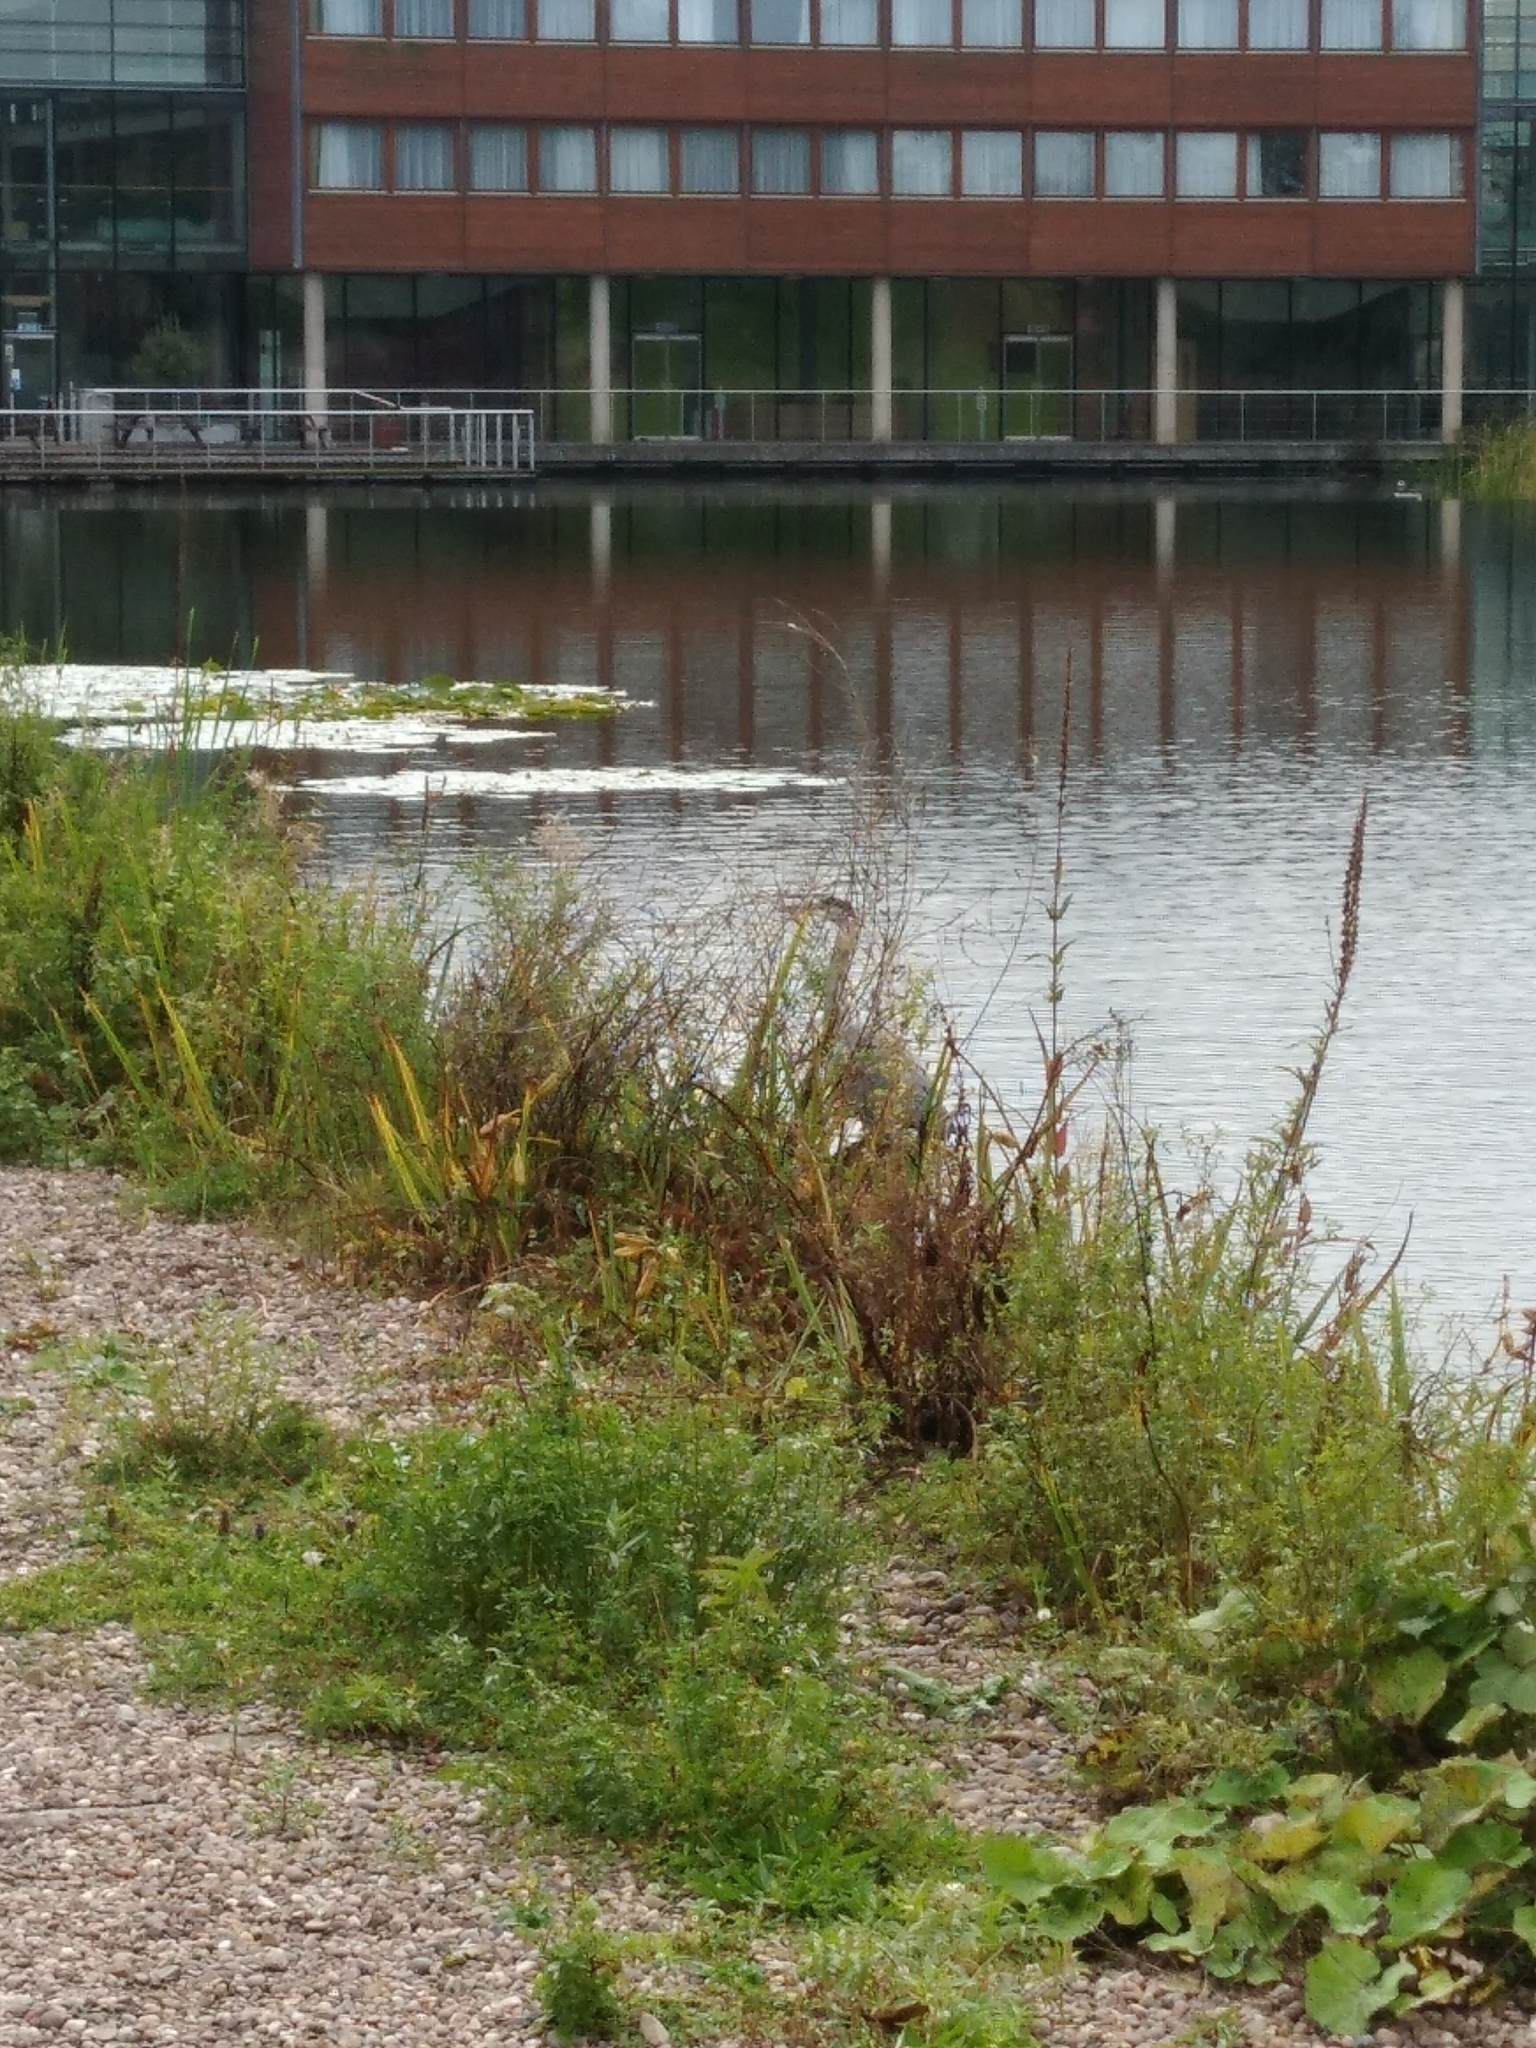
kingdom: Animalia
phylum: Chordata
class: Aves
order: Pelecaniformes
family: Ardeidae
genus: Ardea
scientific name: Ardea cinerea
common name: Grey heron
